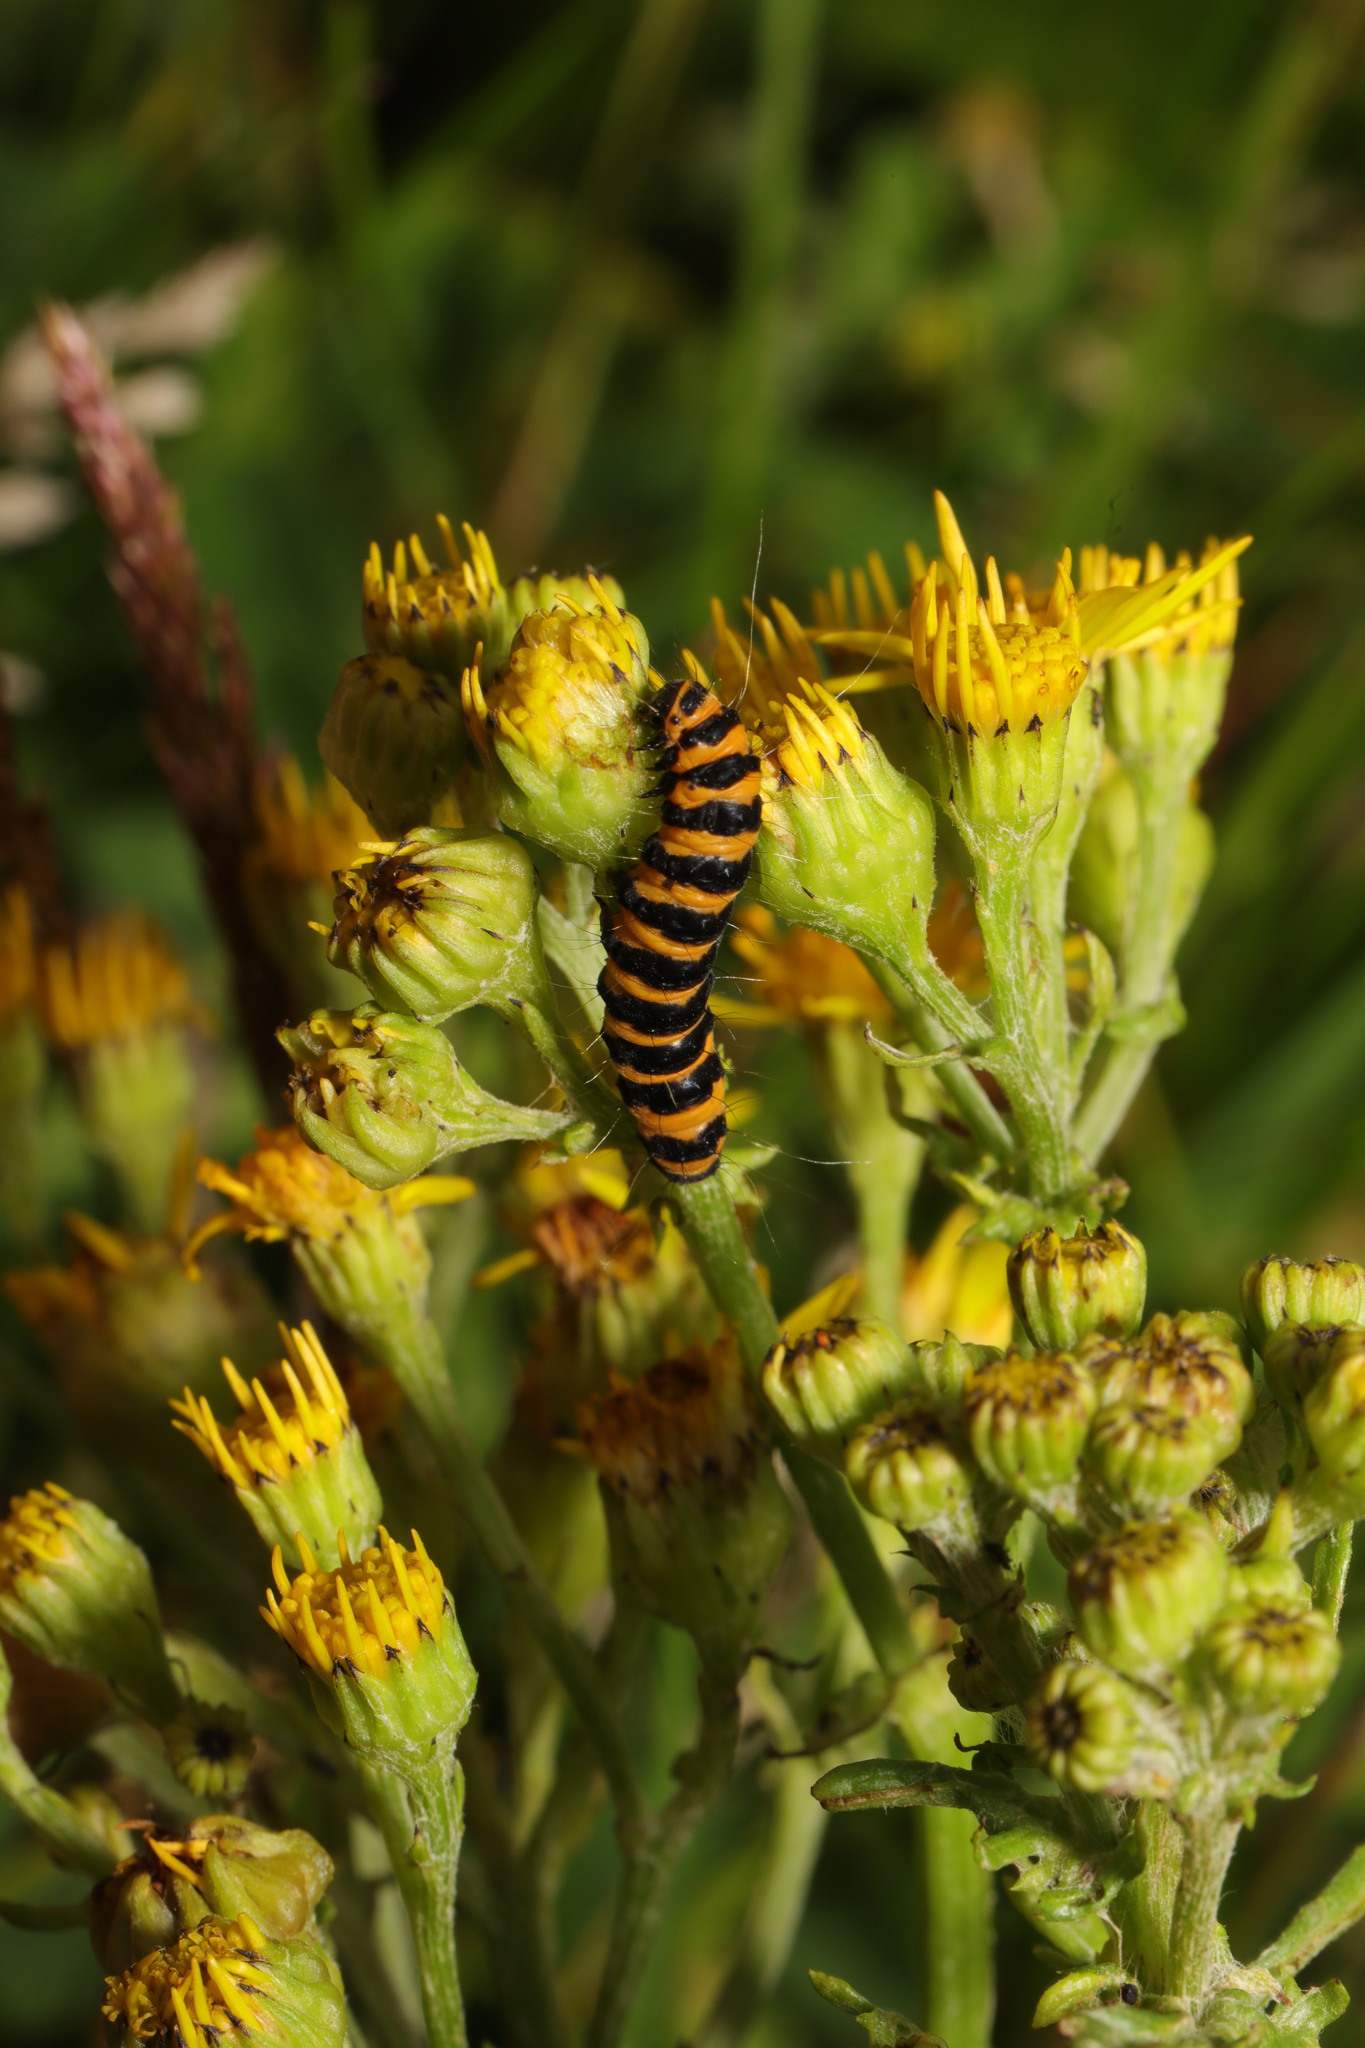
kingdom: Animalia
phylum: Arthropoda
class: Insecta
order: Lepidoptera
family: Erebidae
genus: Tyria
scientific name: Tyria jacobaeae
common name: Cinnabar
